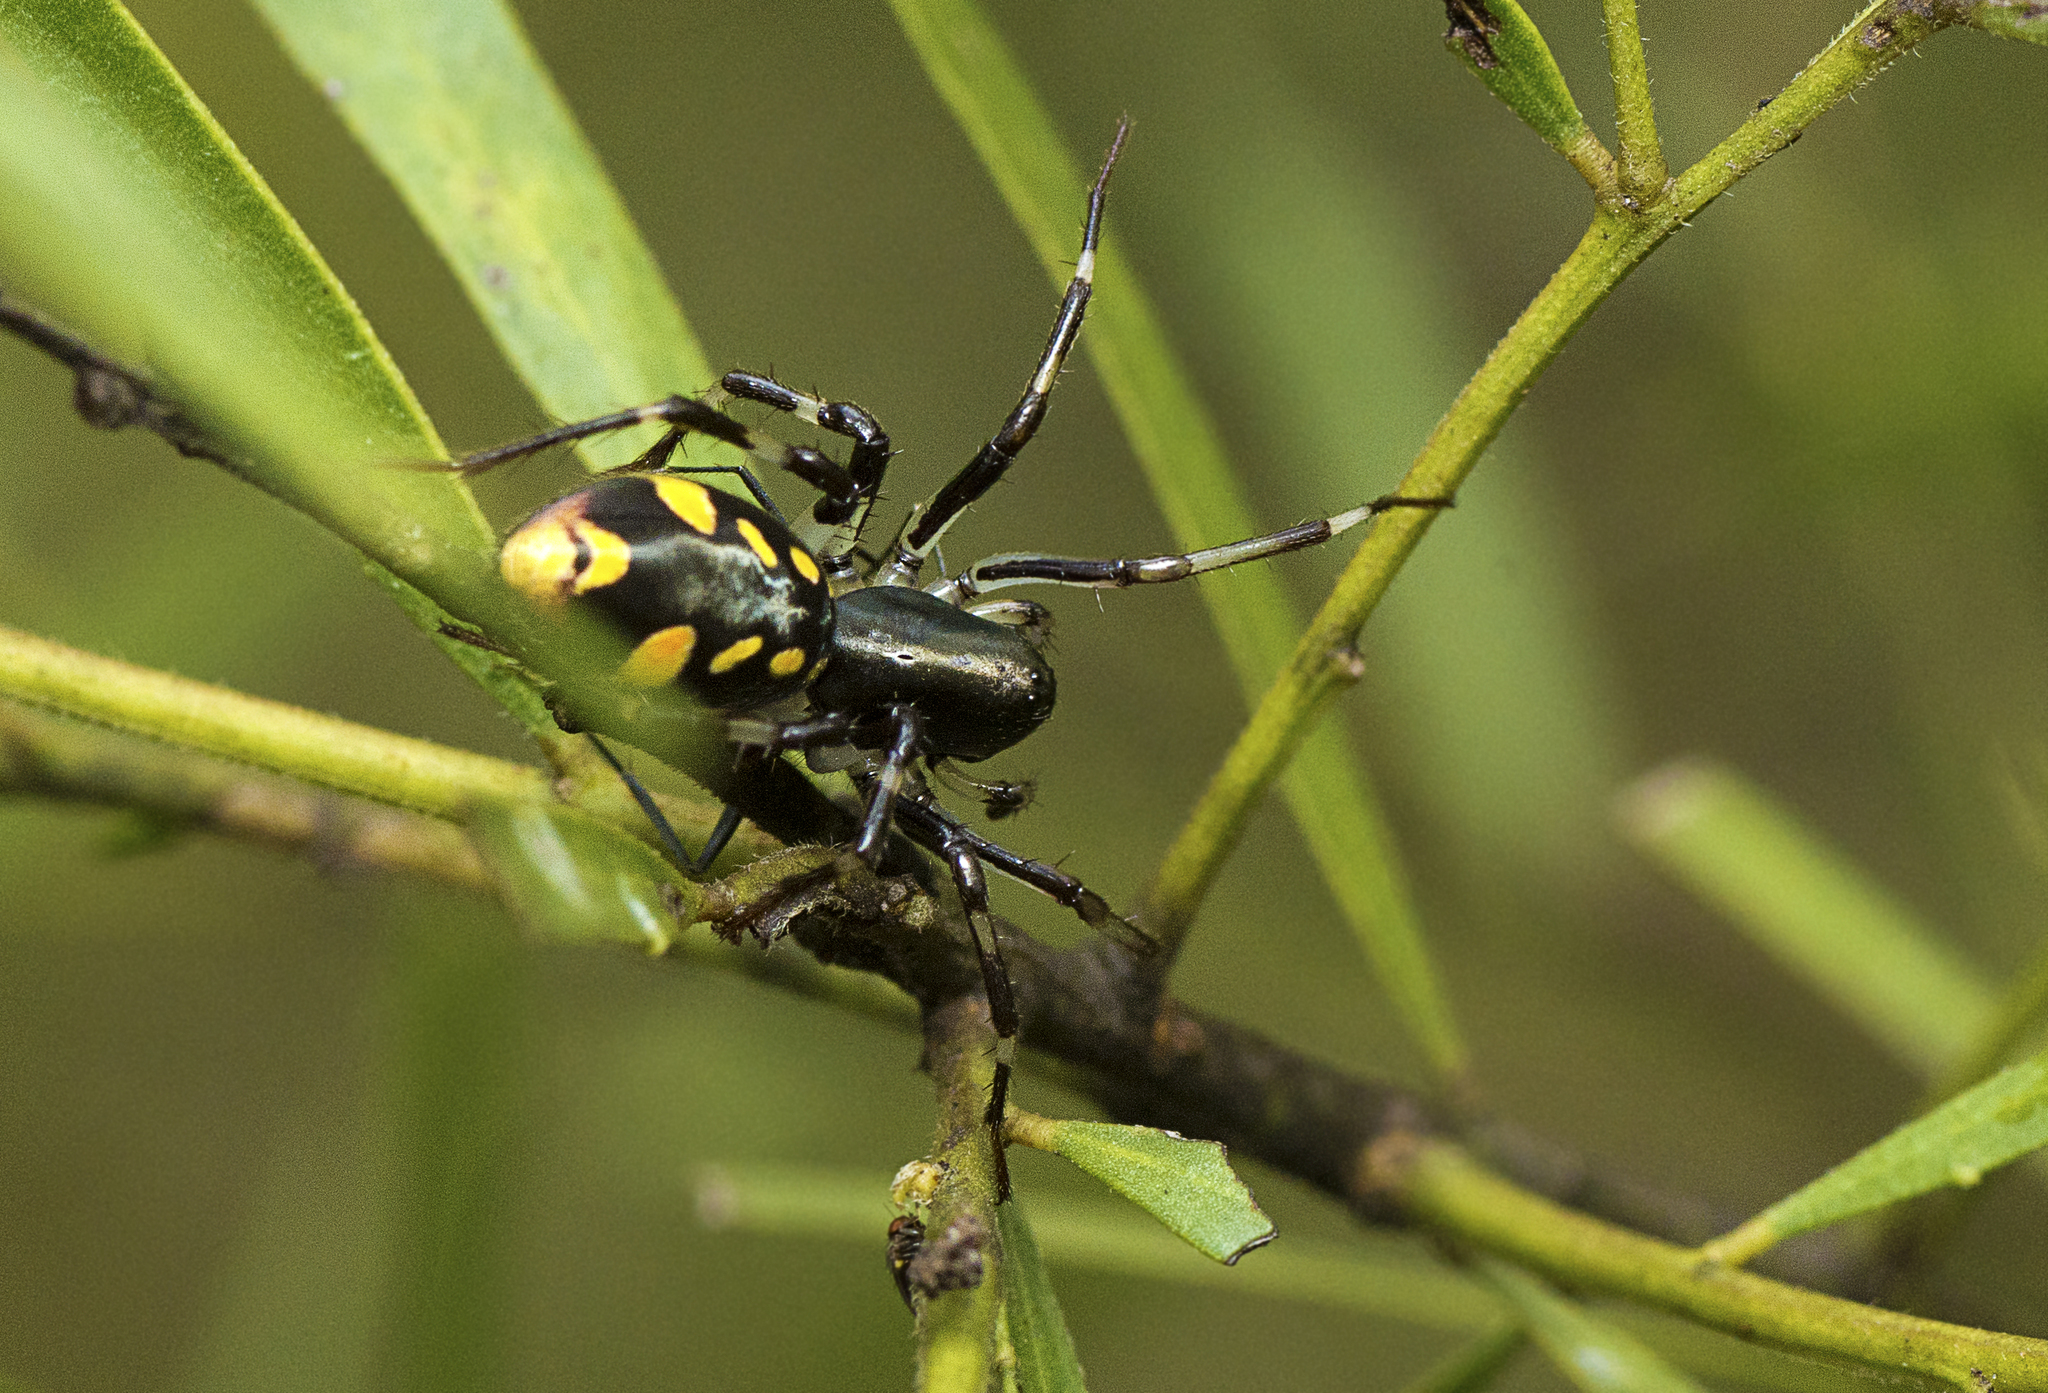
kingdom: Animalia
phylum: Arthropoda
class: Arachnida
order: Araneae
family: Zodariidae
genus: Subasteron
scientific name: Subasteron daviesae
